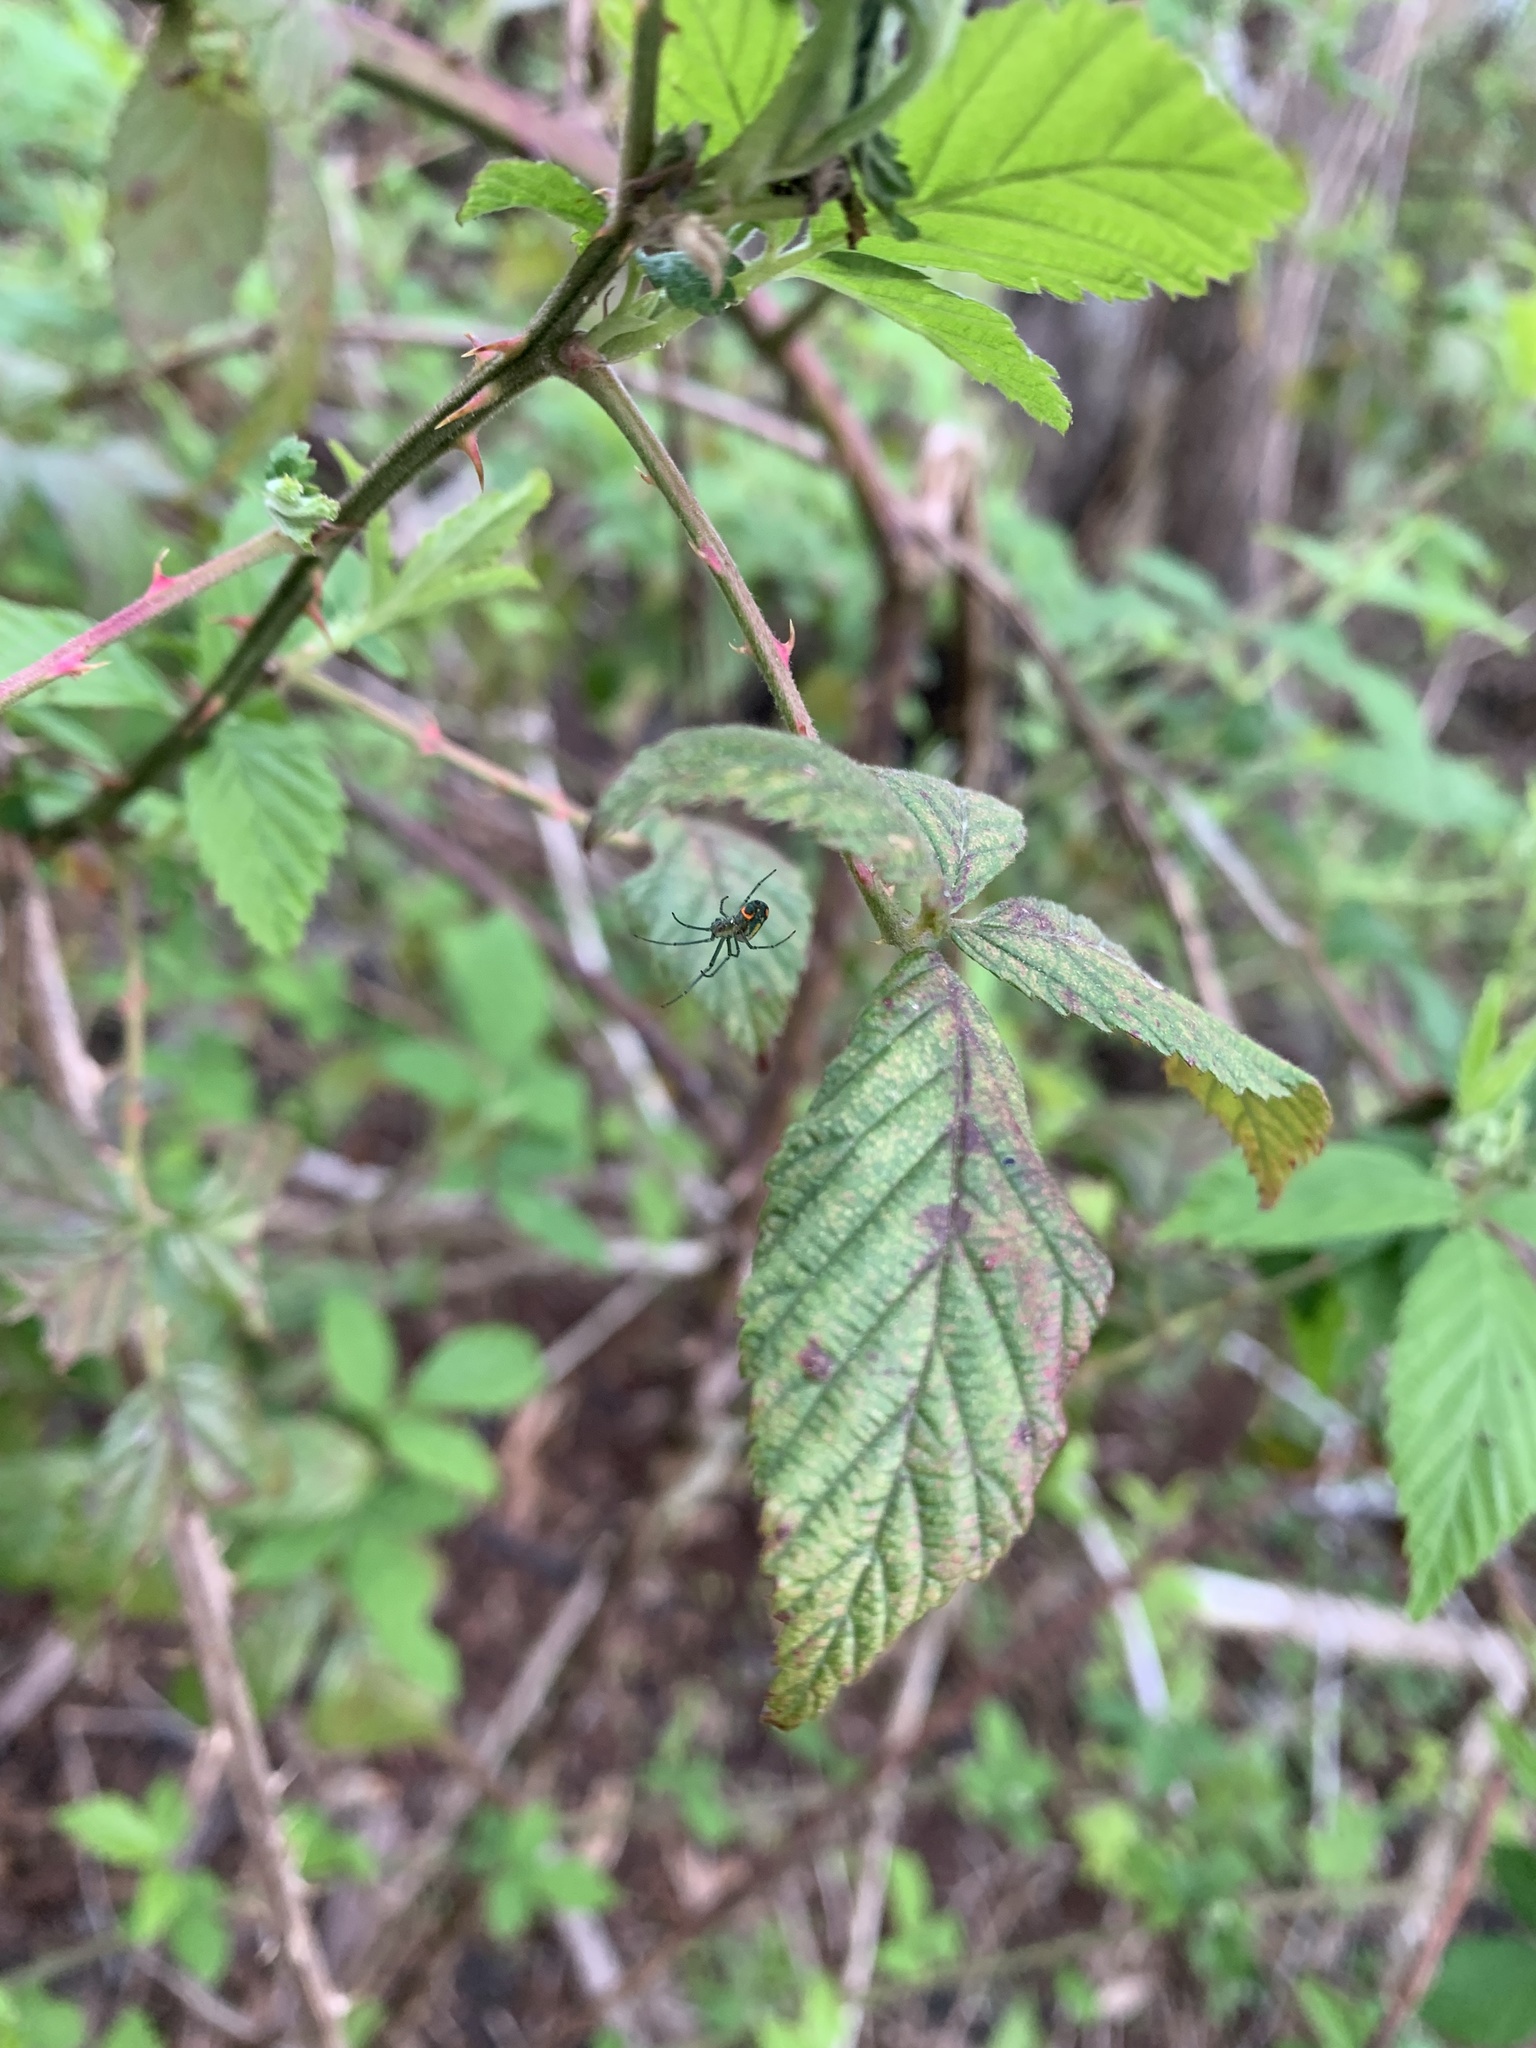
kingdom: Animalia
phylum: Arthropoda
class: Arachnida
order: Araneae
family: Tetragnathidae
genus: Leucauge
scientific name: Leucauge argyrobapta
